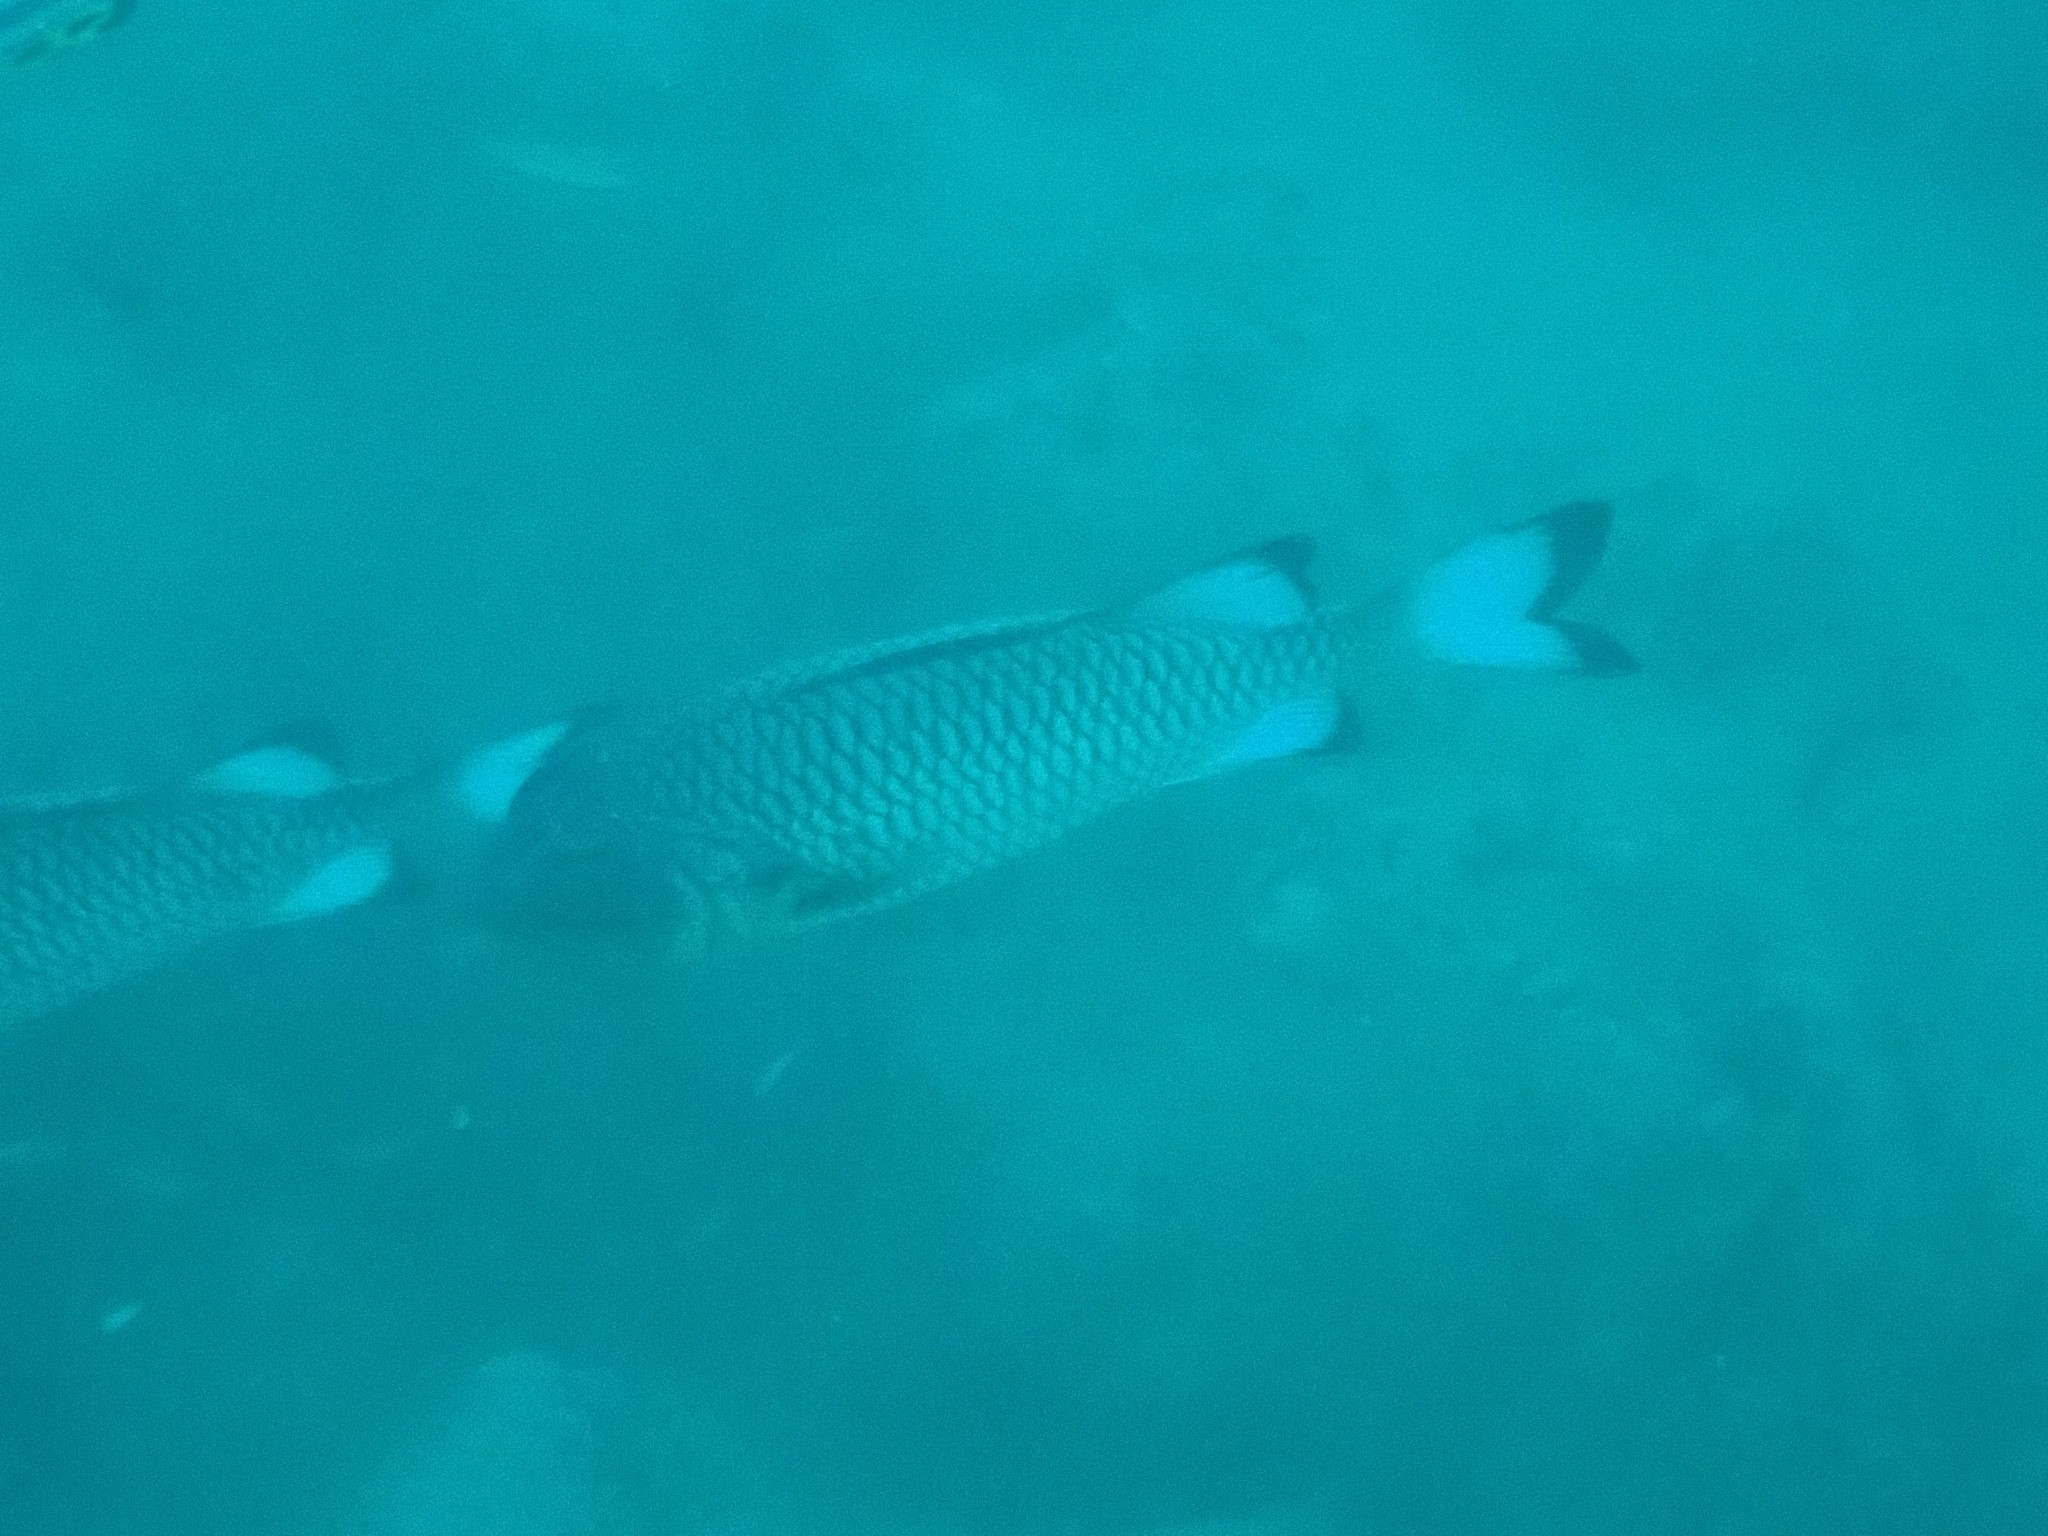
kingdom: Animalia
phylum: Chordata
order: Beryciformes
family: Holocentridae
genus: Myripristis
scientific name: Myripristis adusta
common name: Blackfin soldierfish
